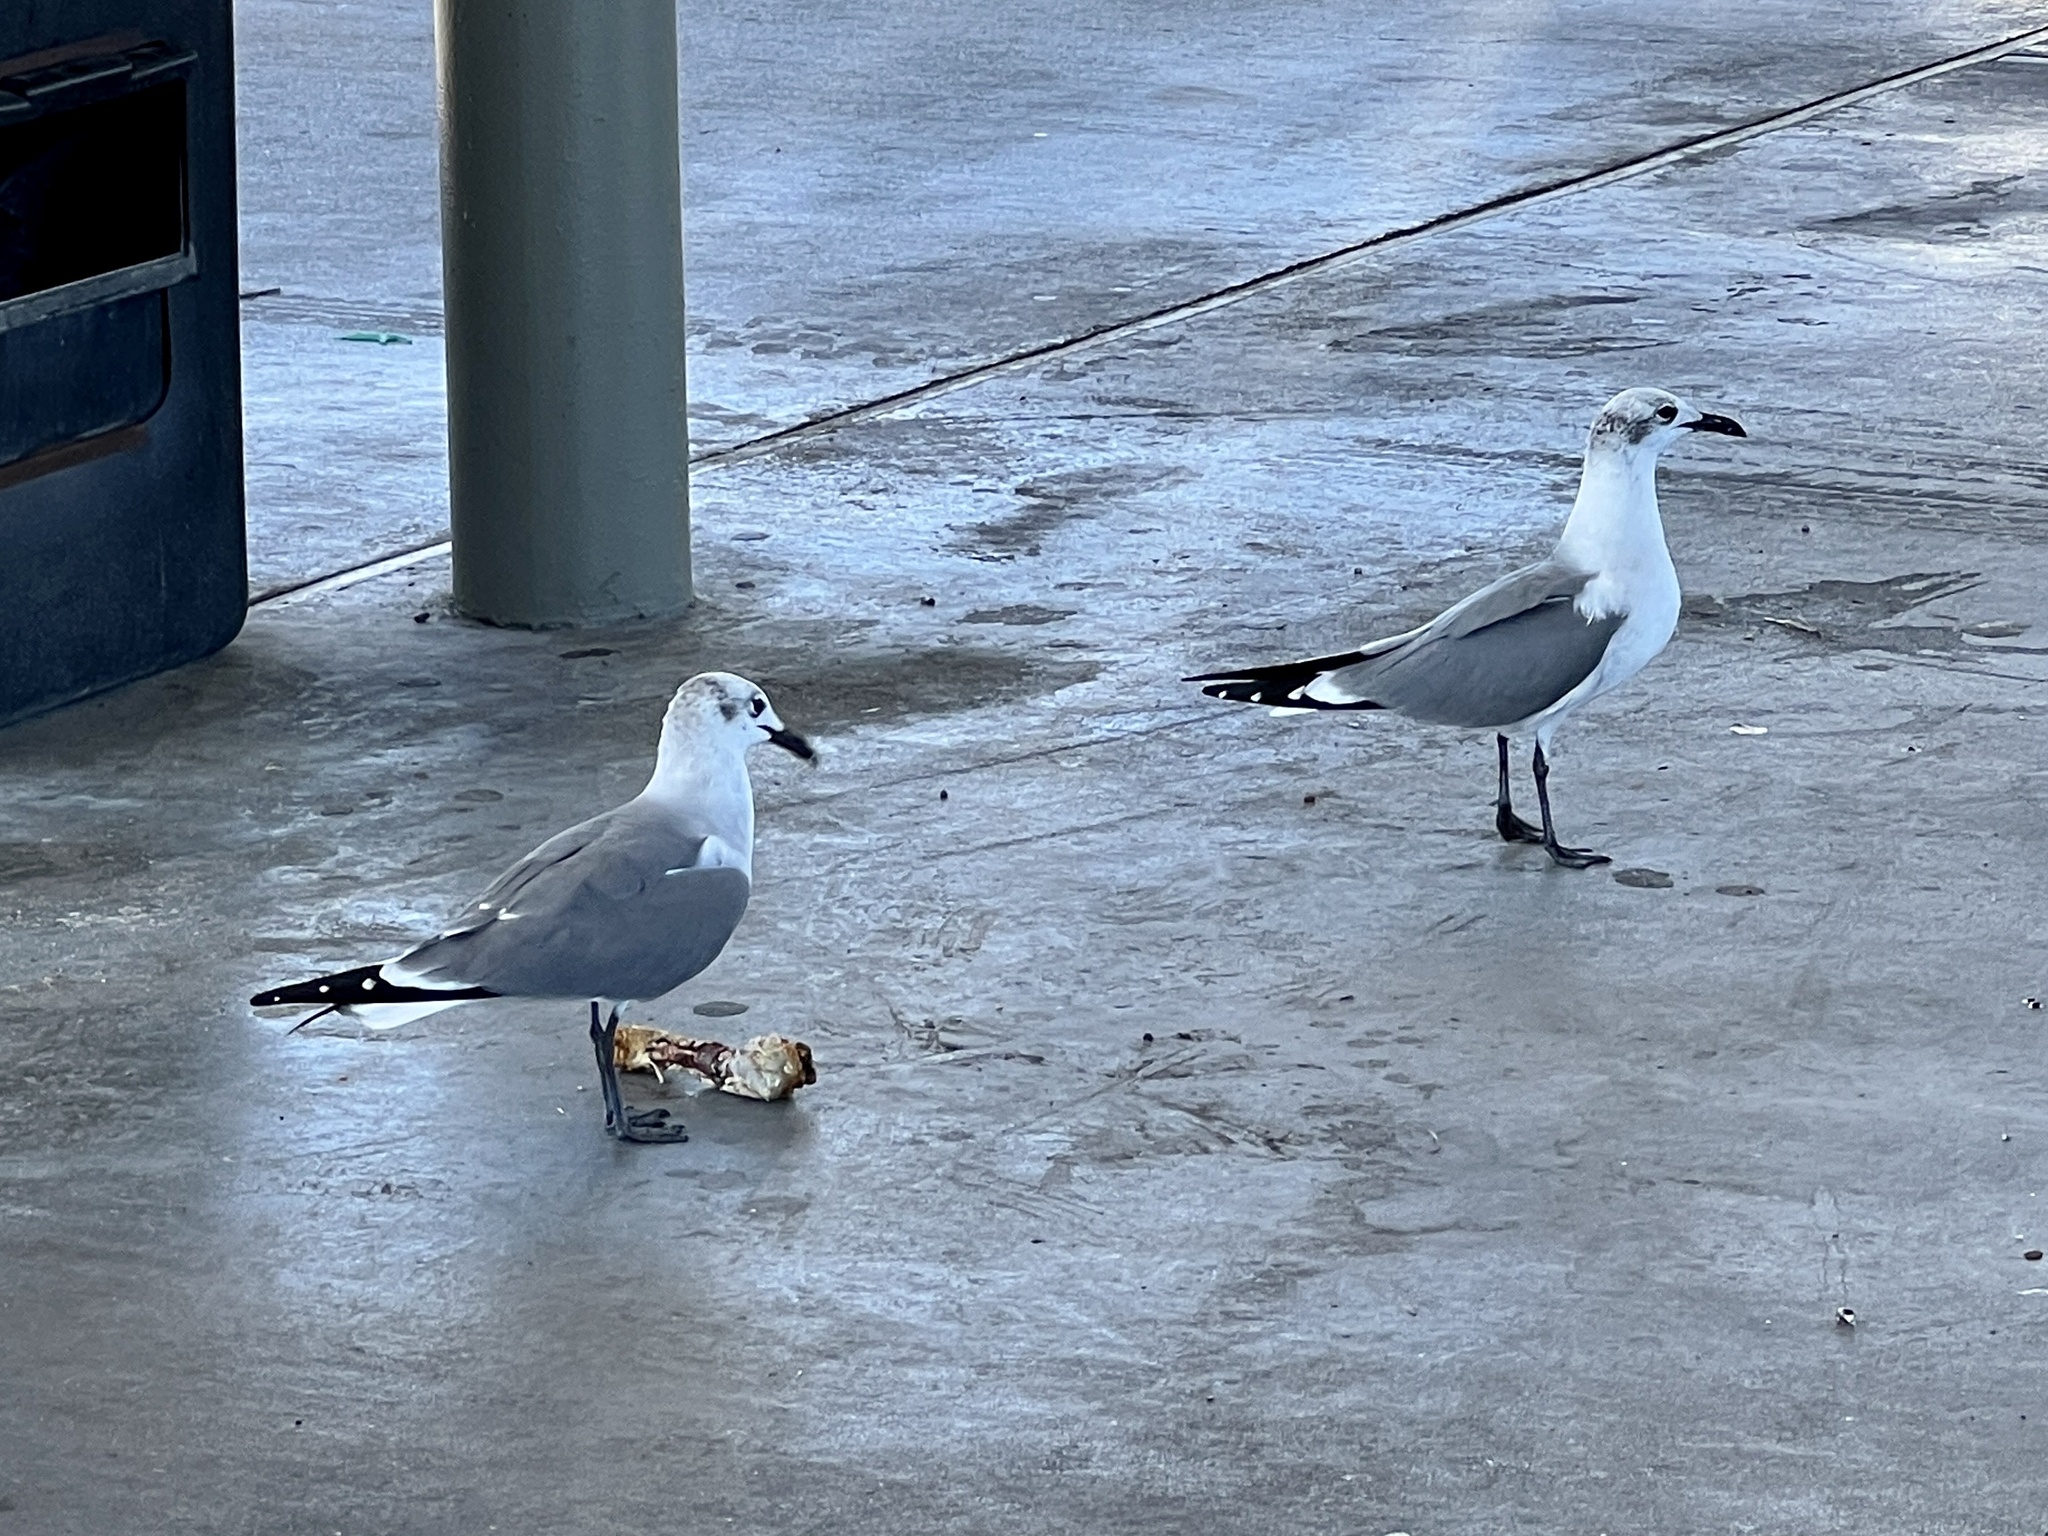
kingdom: Animalia
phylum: Chordata
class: Aves
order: Charadriiformes
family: Laridae
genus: Leucophaeus
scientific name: Leucophaeus atricilla
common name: Laughing gull
